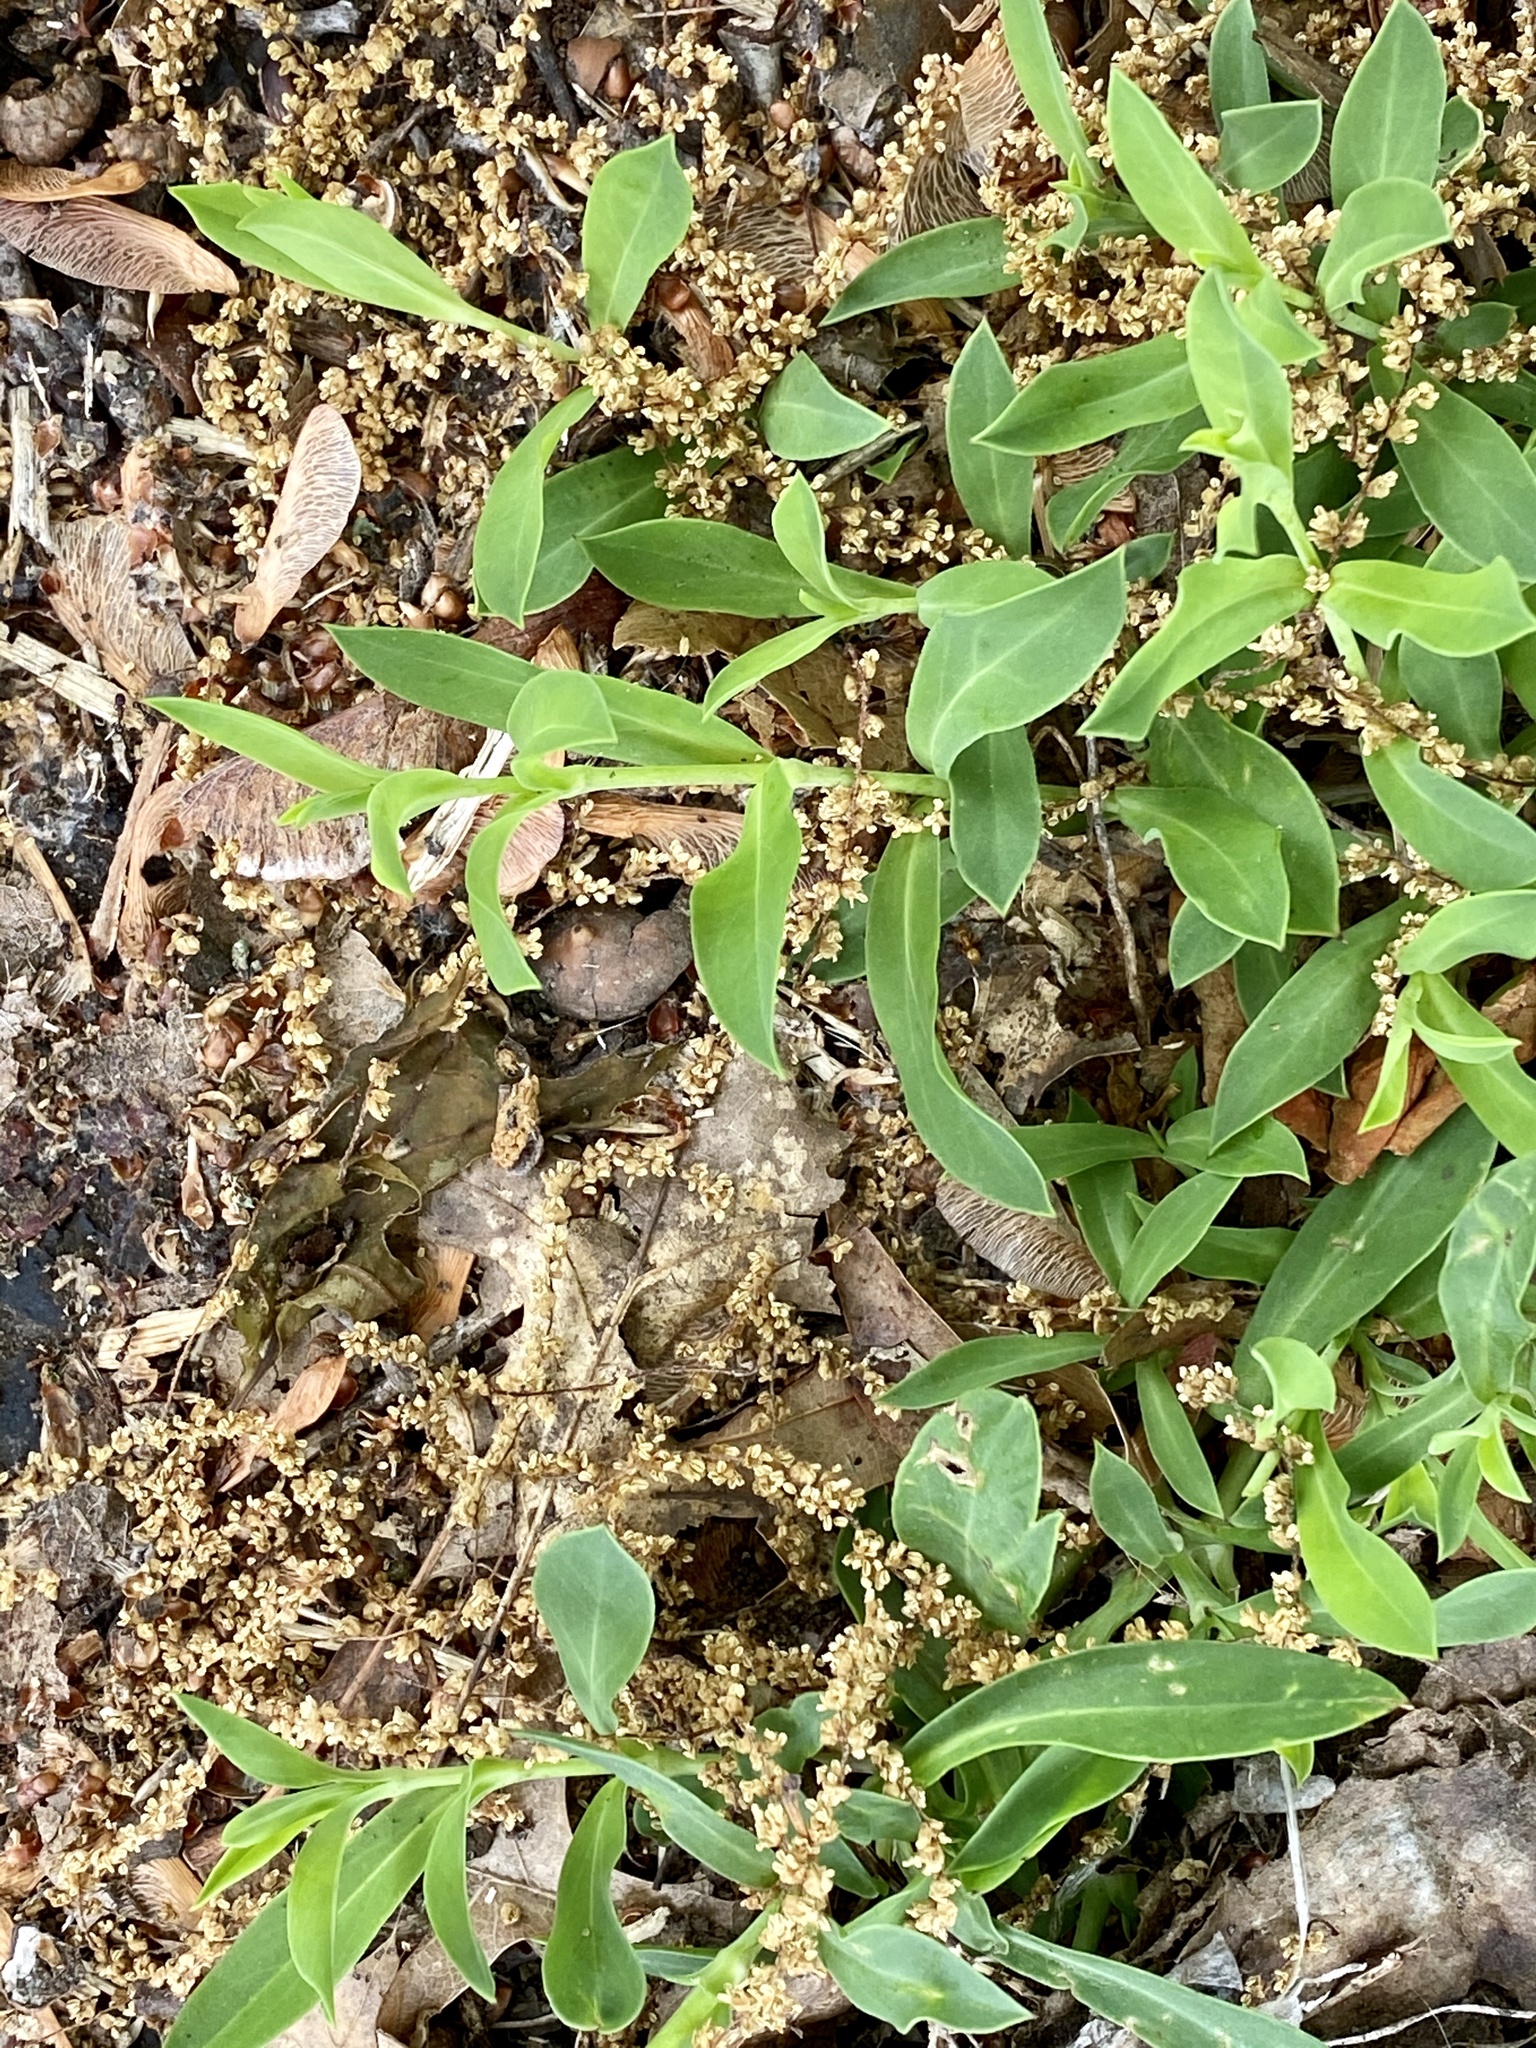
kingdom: Plantae
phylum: Tracheophyta
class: Magnoliopsida
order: Caryophyllales
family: Polygonaceae
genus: Polygonum
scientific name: Polygonum aviculare
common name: Prostrate knotweed
